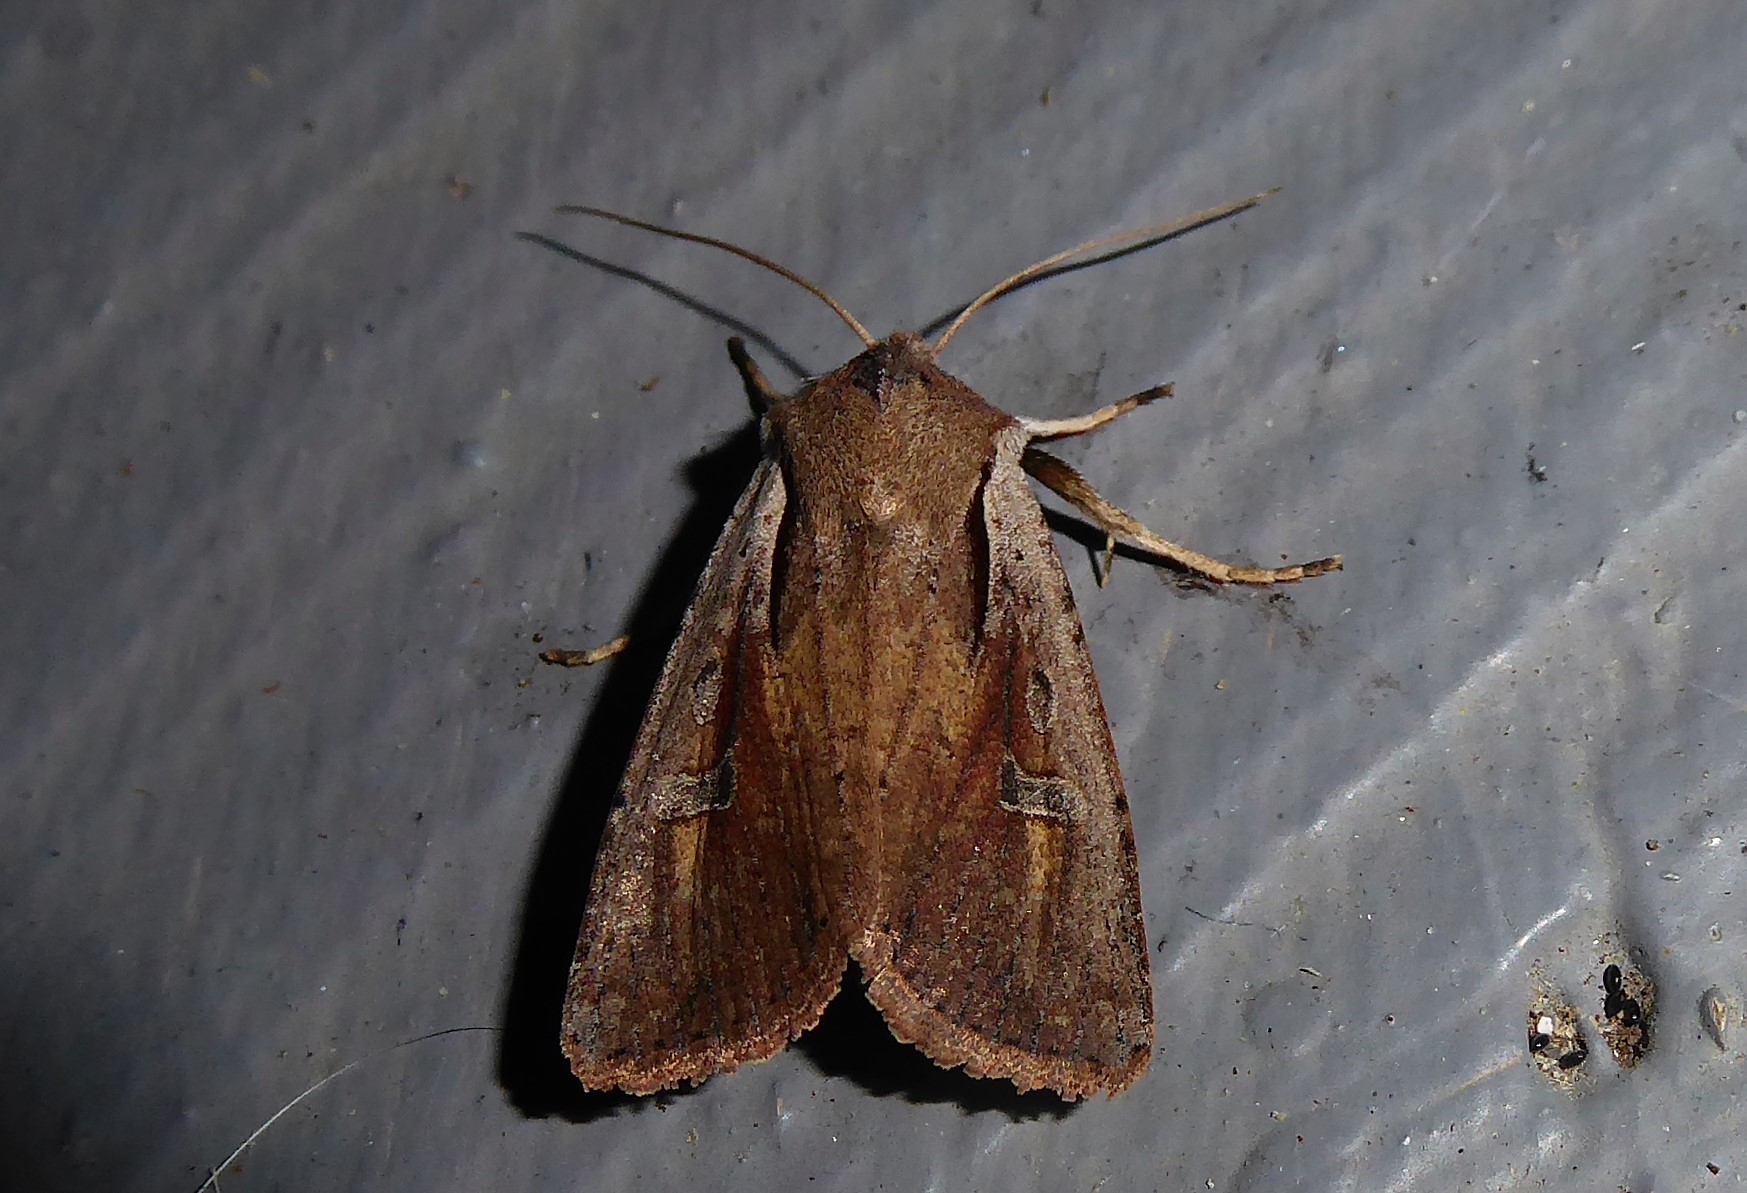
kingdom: Animalia
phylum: Arthropoda
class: Insecta
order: Lepidoptera
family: Noctuidae
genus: Ichneutica
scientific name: Ichneutica atristriga
